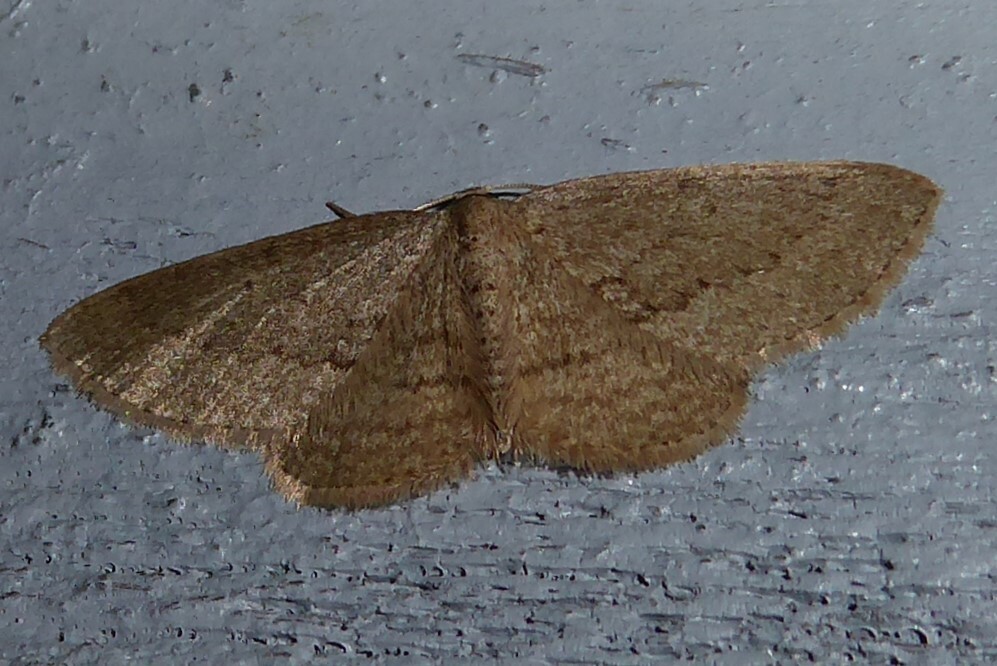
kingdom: Animalia
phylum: Arthropoda
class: Insecta
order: Lepidoptera
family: Geometridae
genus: Poecilasthena
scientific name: Poecilasthena schistaria
